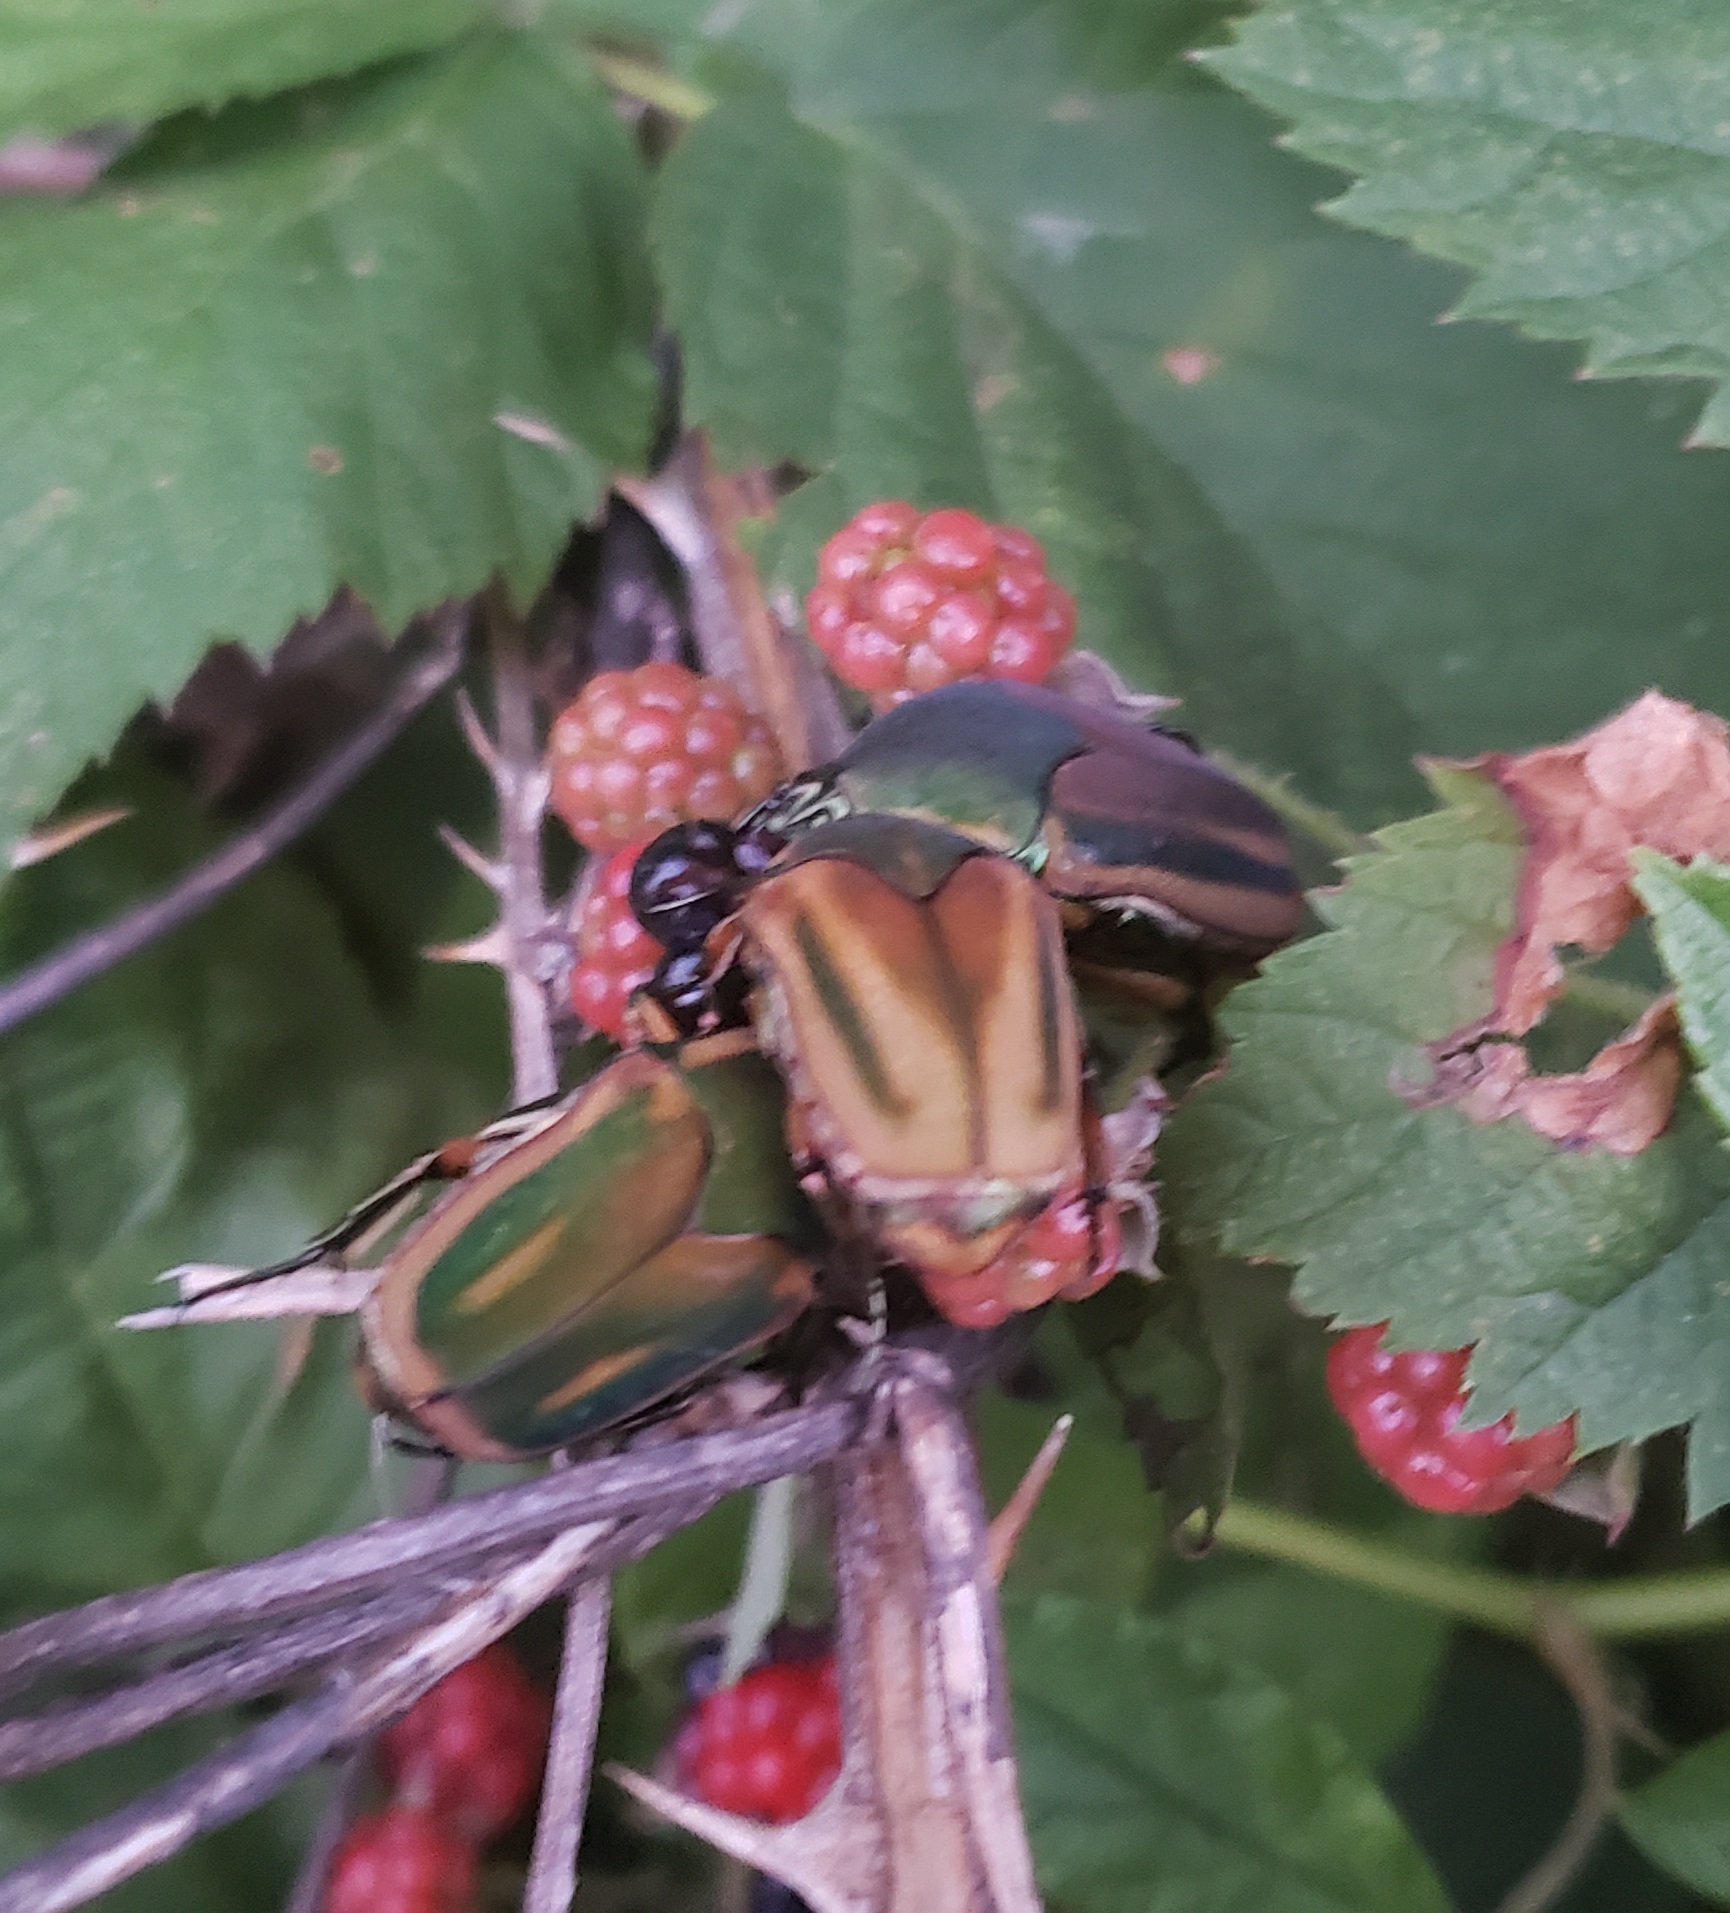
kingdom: Animalia
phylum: Arthropoda
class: Insecta
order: Coleoptera
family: Scarabaeidae
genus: Cotinis
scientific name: Cotinis nitida
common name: Common green june beetle
